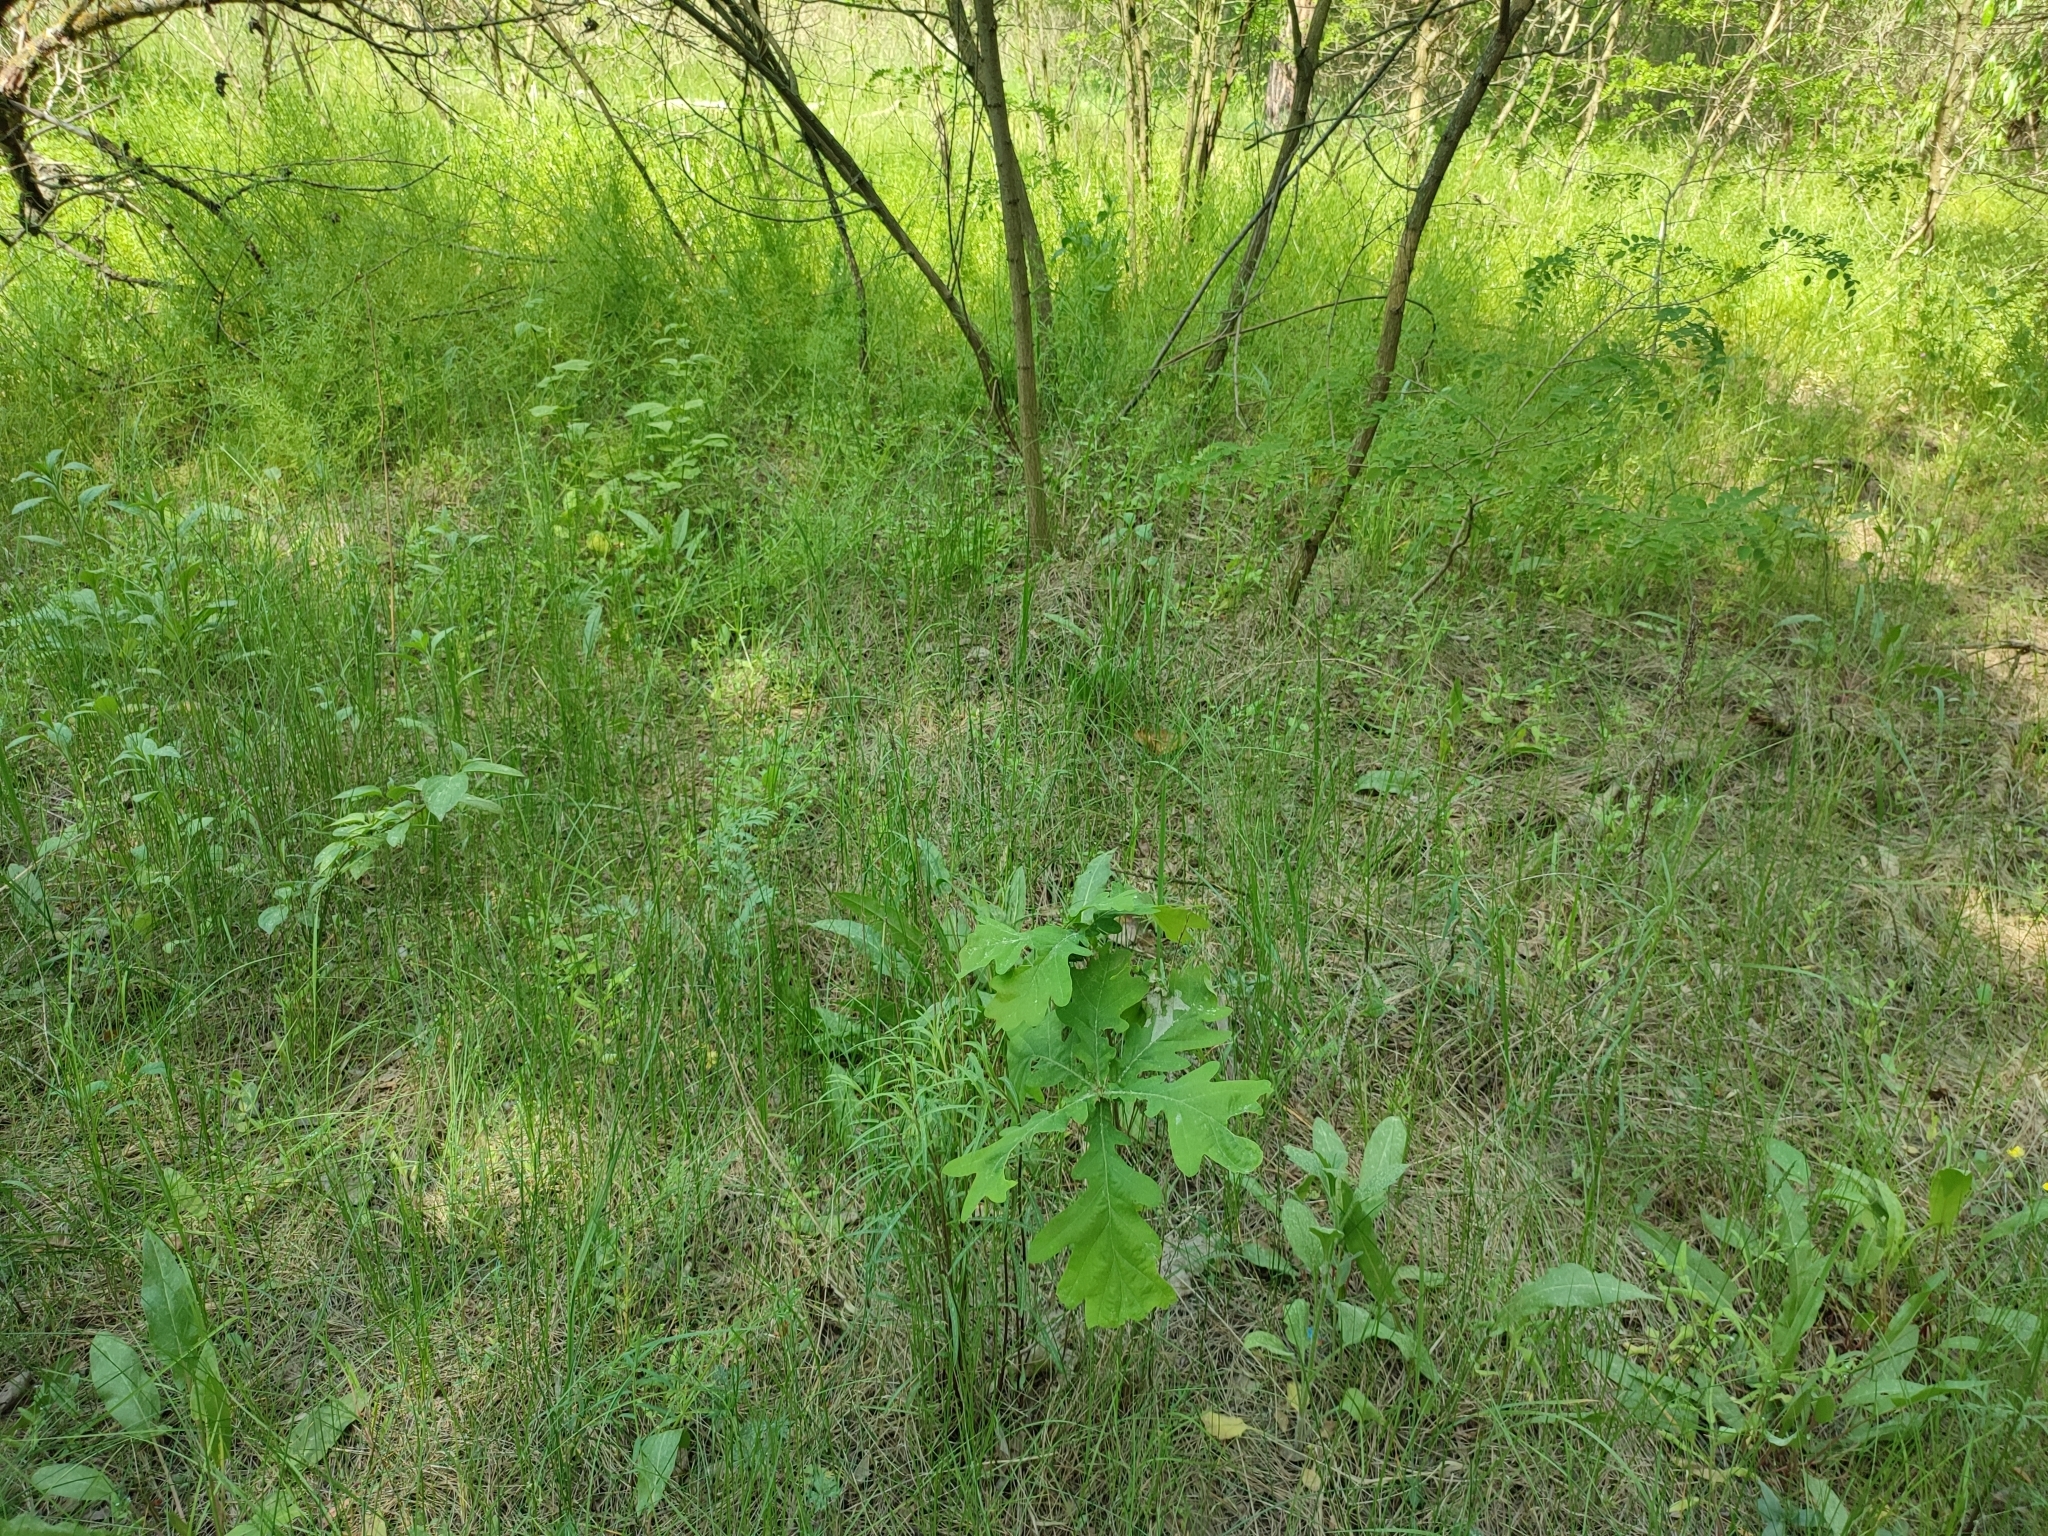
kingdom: Plantae
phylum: Tracheophyta
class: Magnoliopsida
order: Fagales
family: Fagaceae
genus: Quercus
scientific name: Quercus robur
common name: Pedunculate oak
